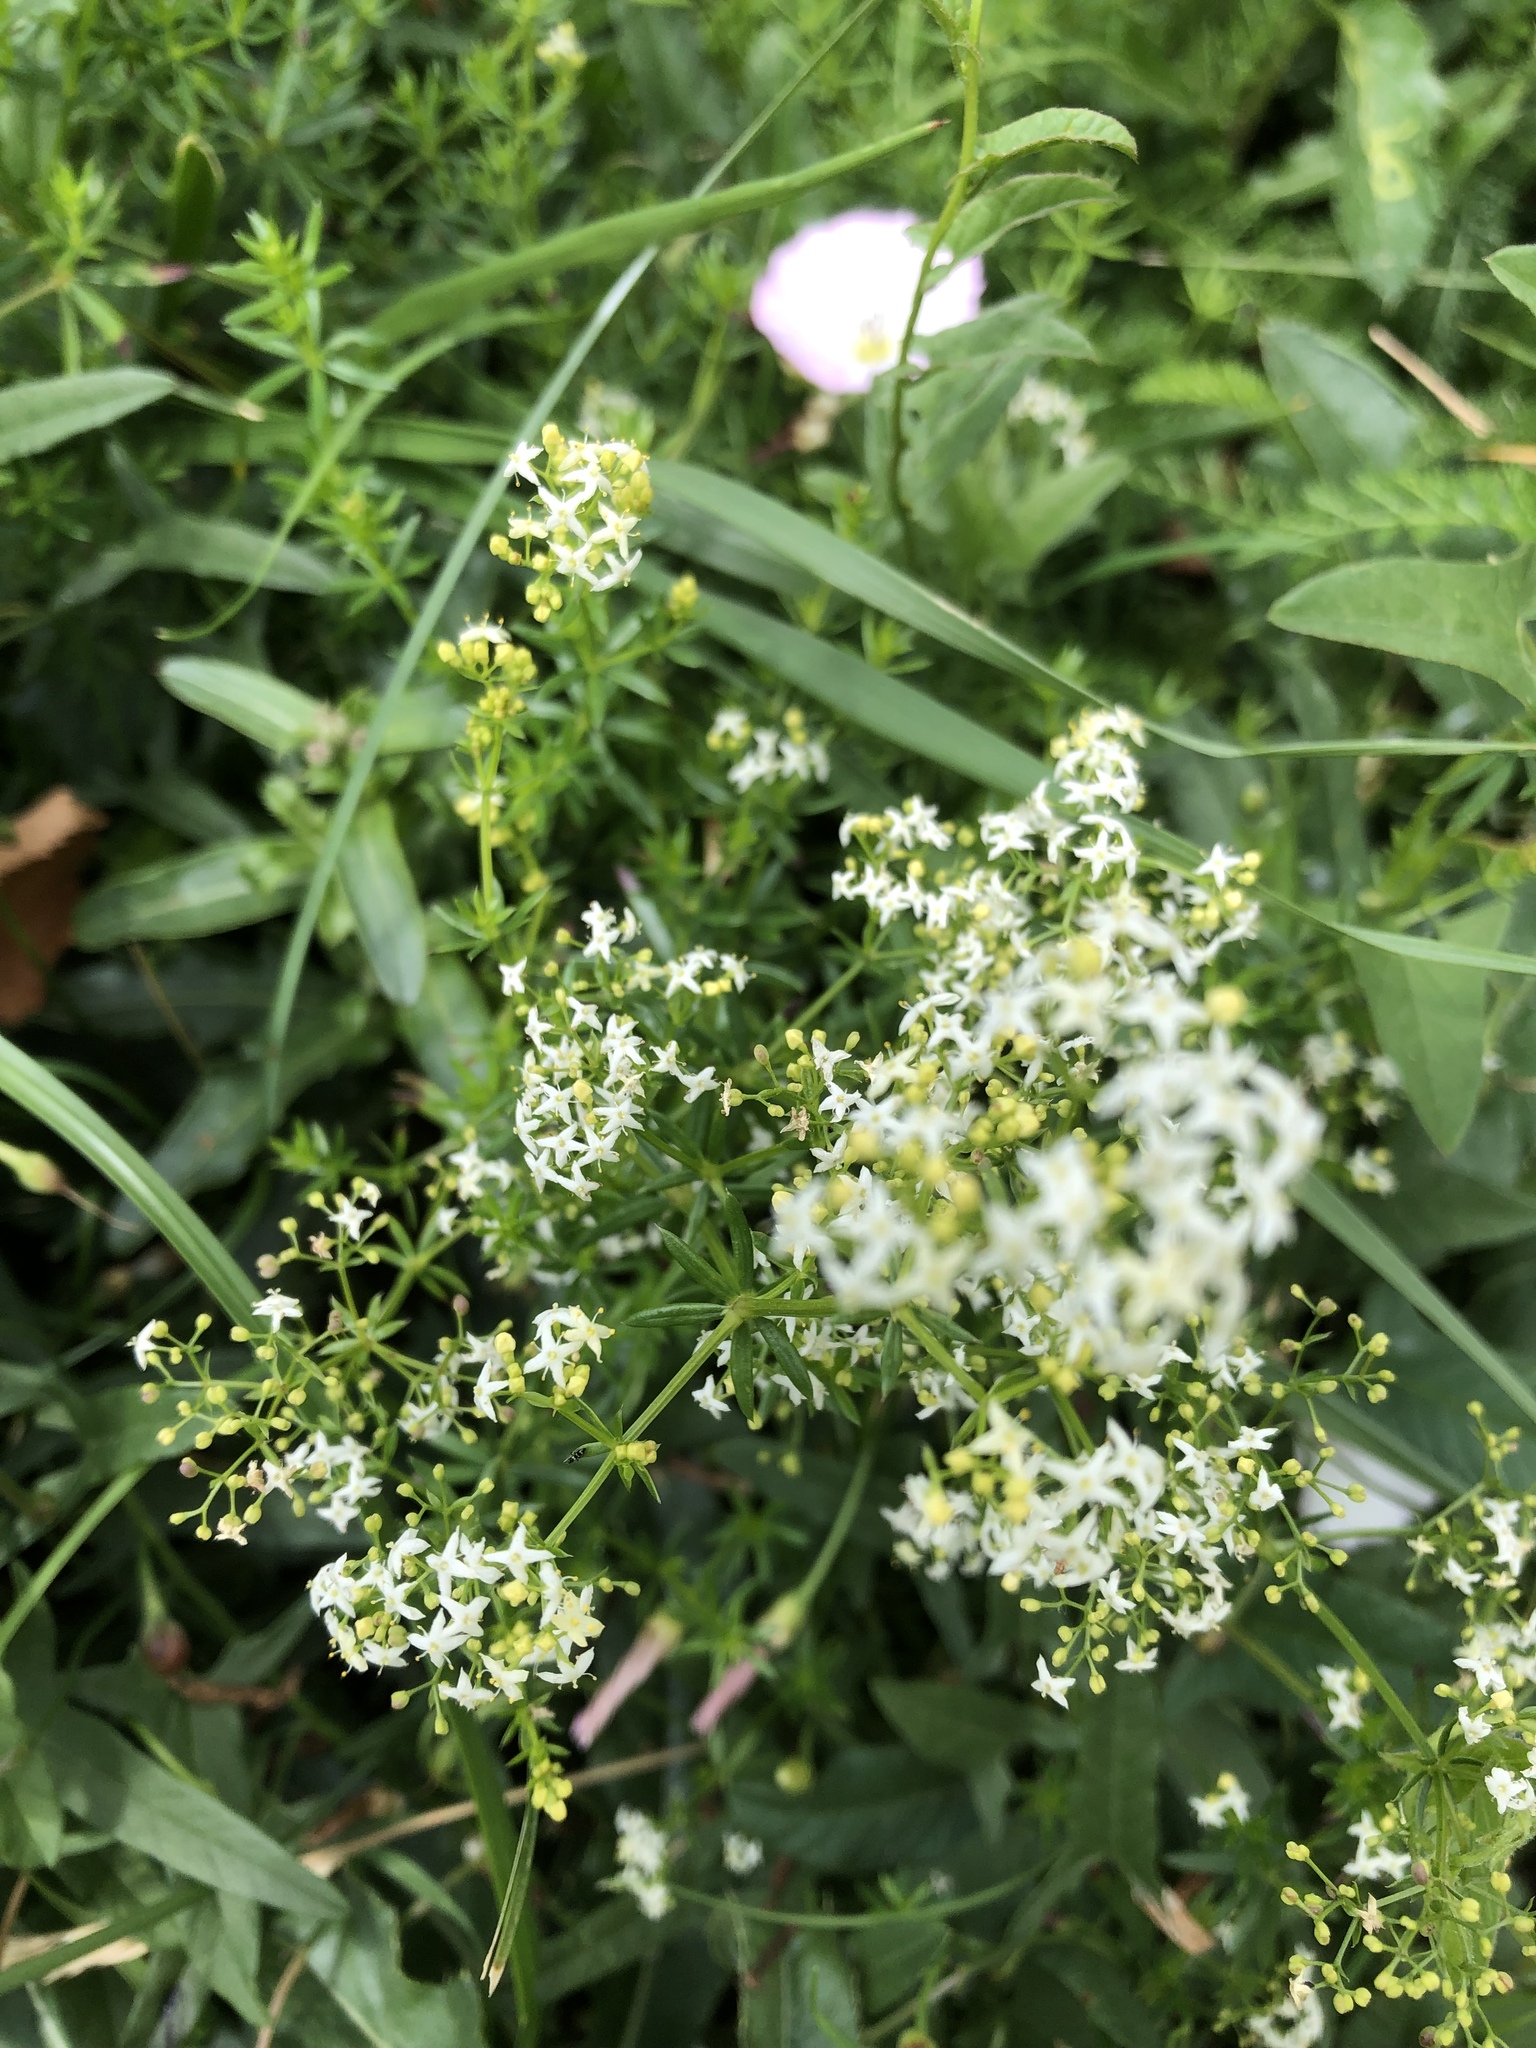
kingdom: Plantae
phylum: Tracheophyta
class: Magnoliopsida
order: Gentianales
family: Rubiaceae
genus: Galium
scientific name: Galium mollugo
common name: Hedge bedstraw
